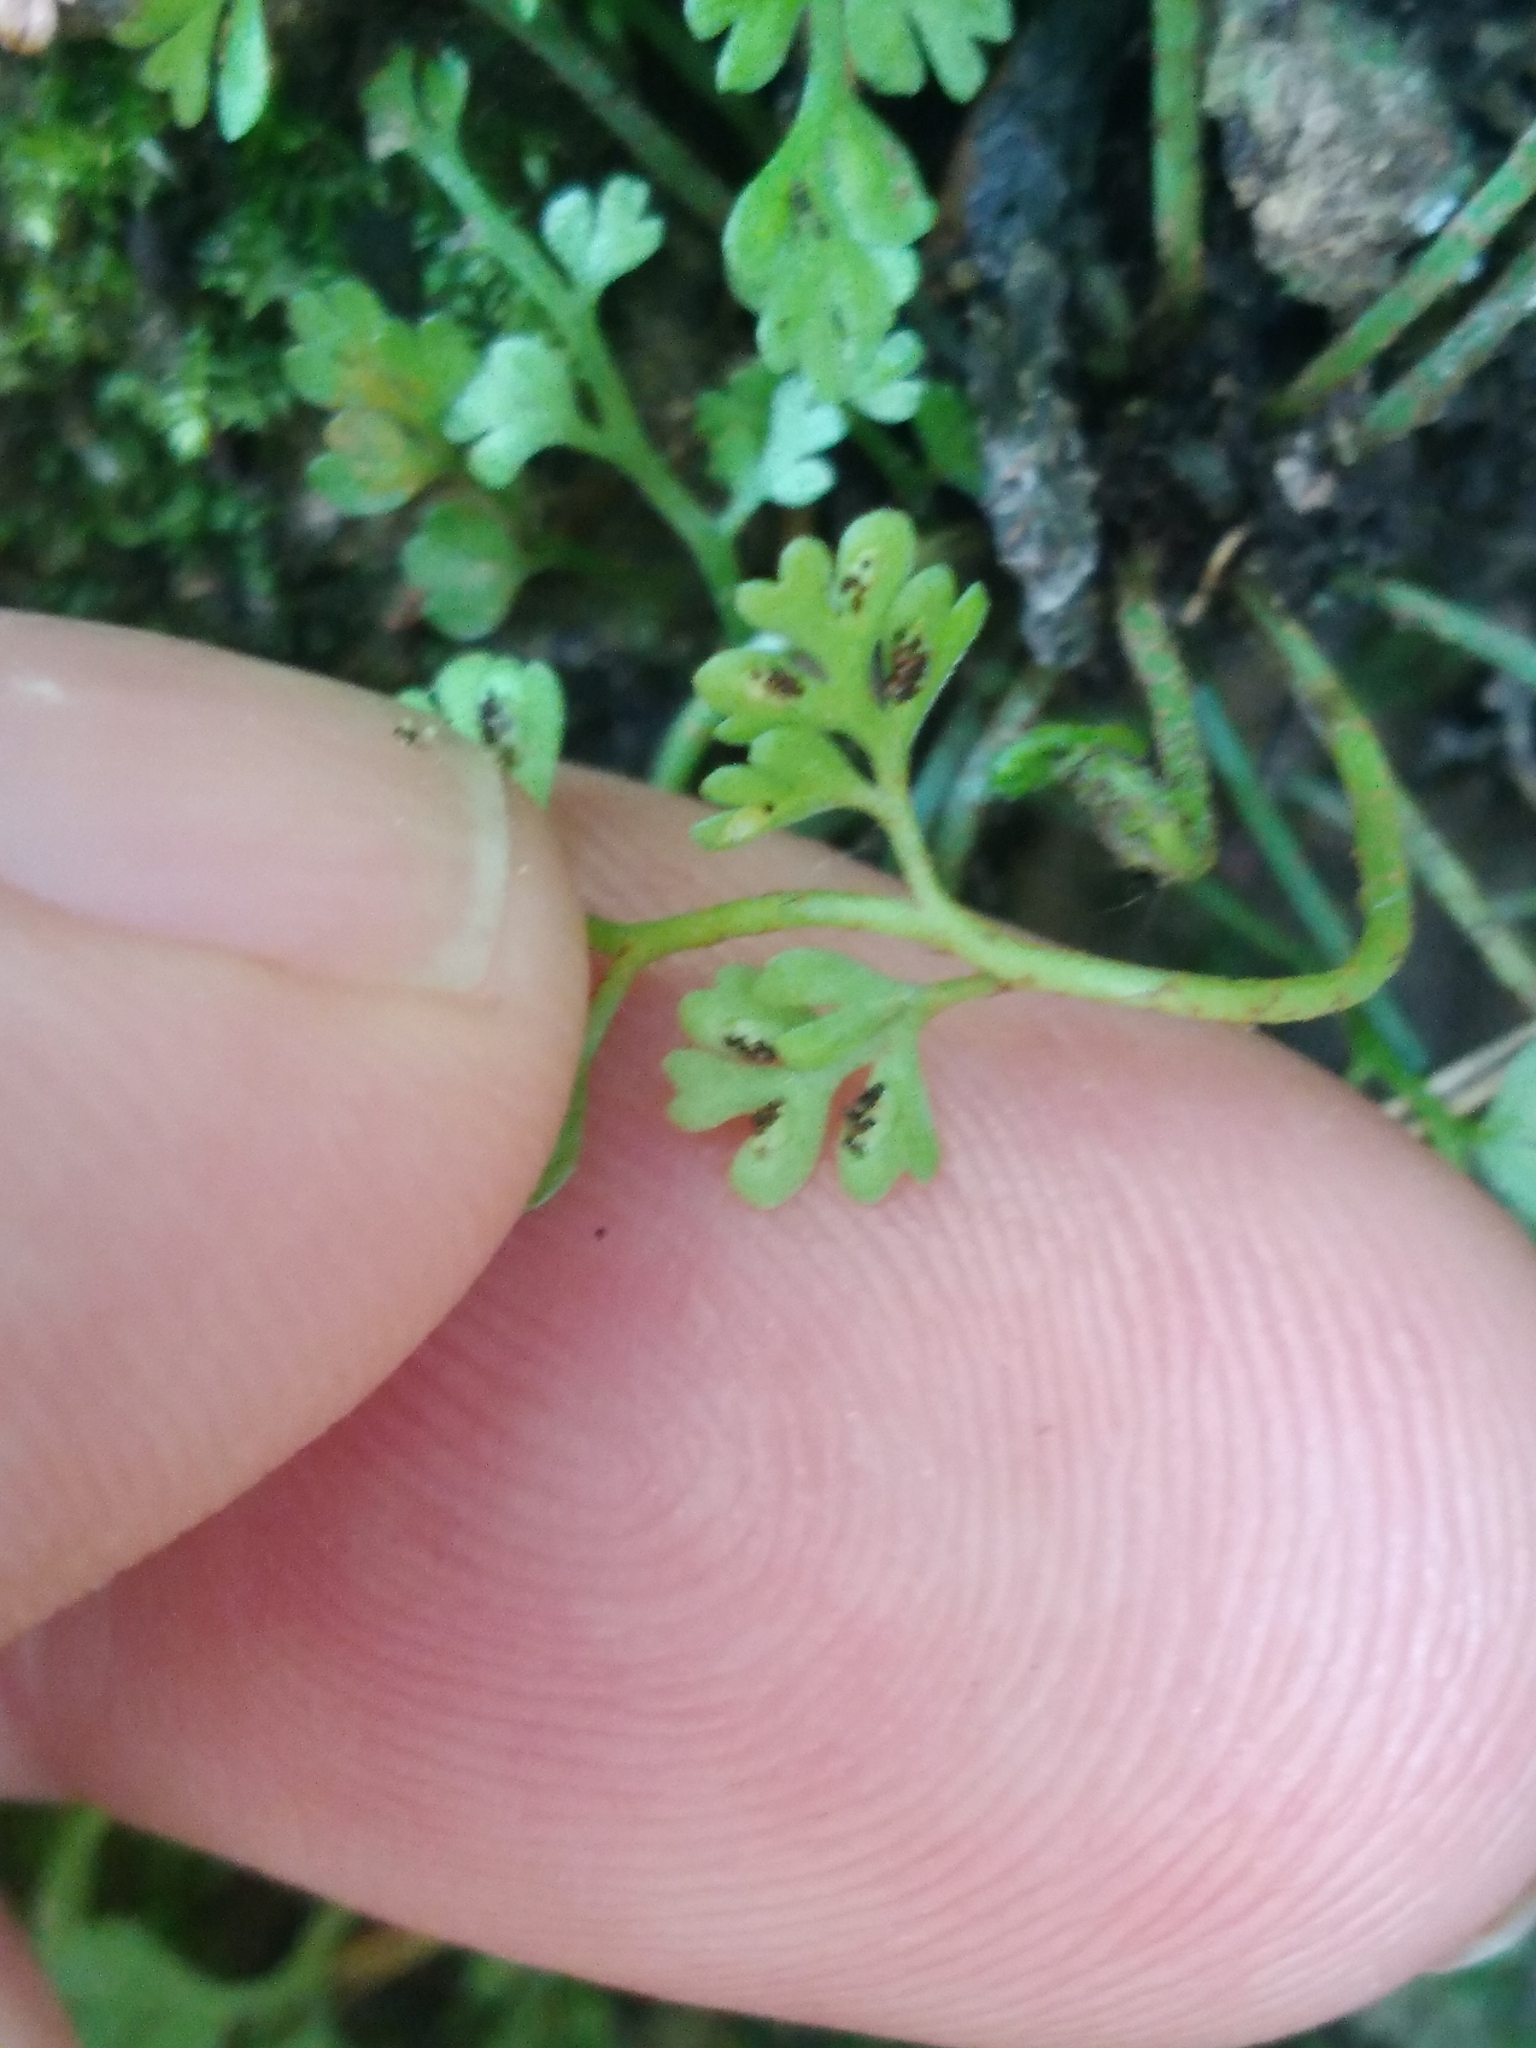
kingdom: Plantae
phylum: Tracheophyta
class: Polypodiopsida
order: Polypodiales
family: Aspleniaceae
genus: Asplenium
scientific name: Asplenium hookerianum
